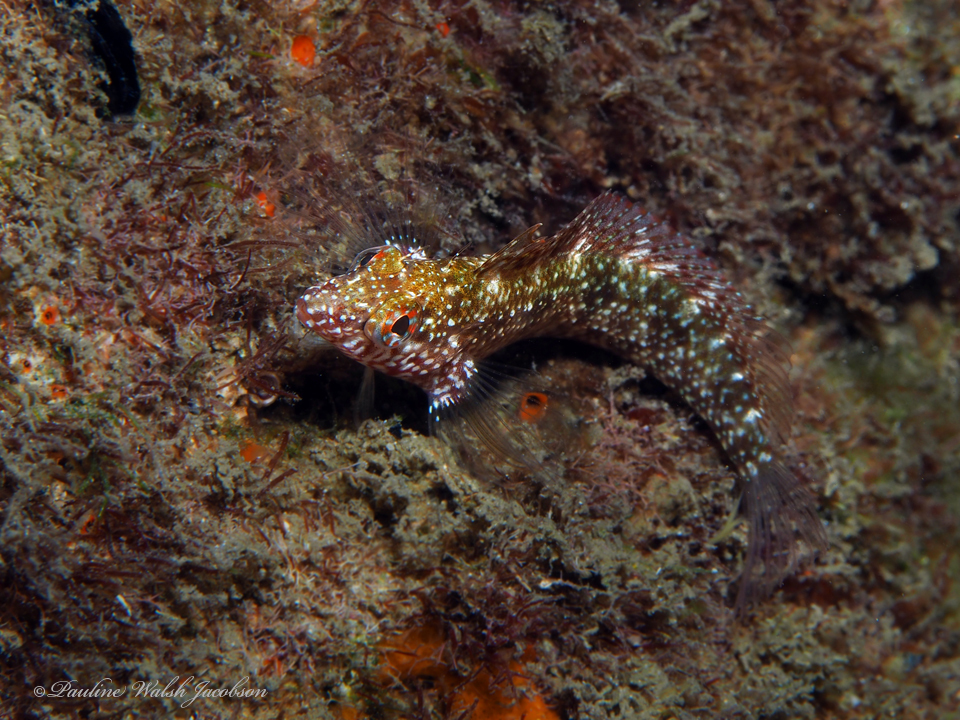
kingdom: Animalia
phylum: Chordata
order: Perciformes
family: Labrisomidae
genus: Malacoctenus
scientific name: Malacoctenus macropus
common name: Rosy blenny
